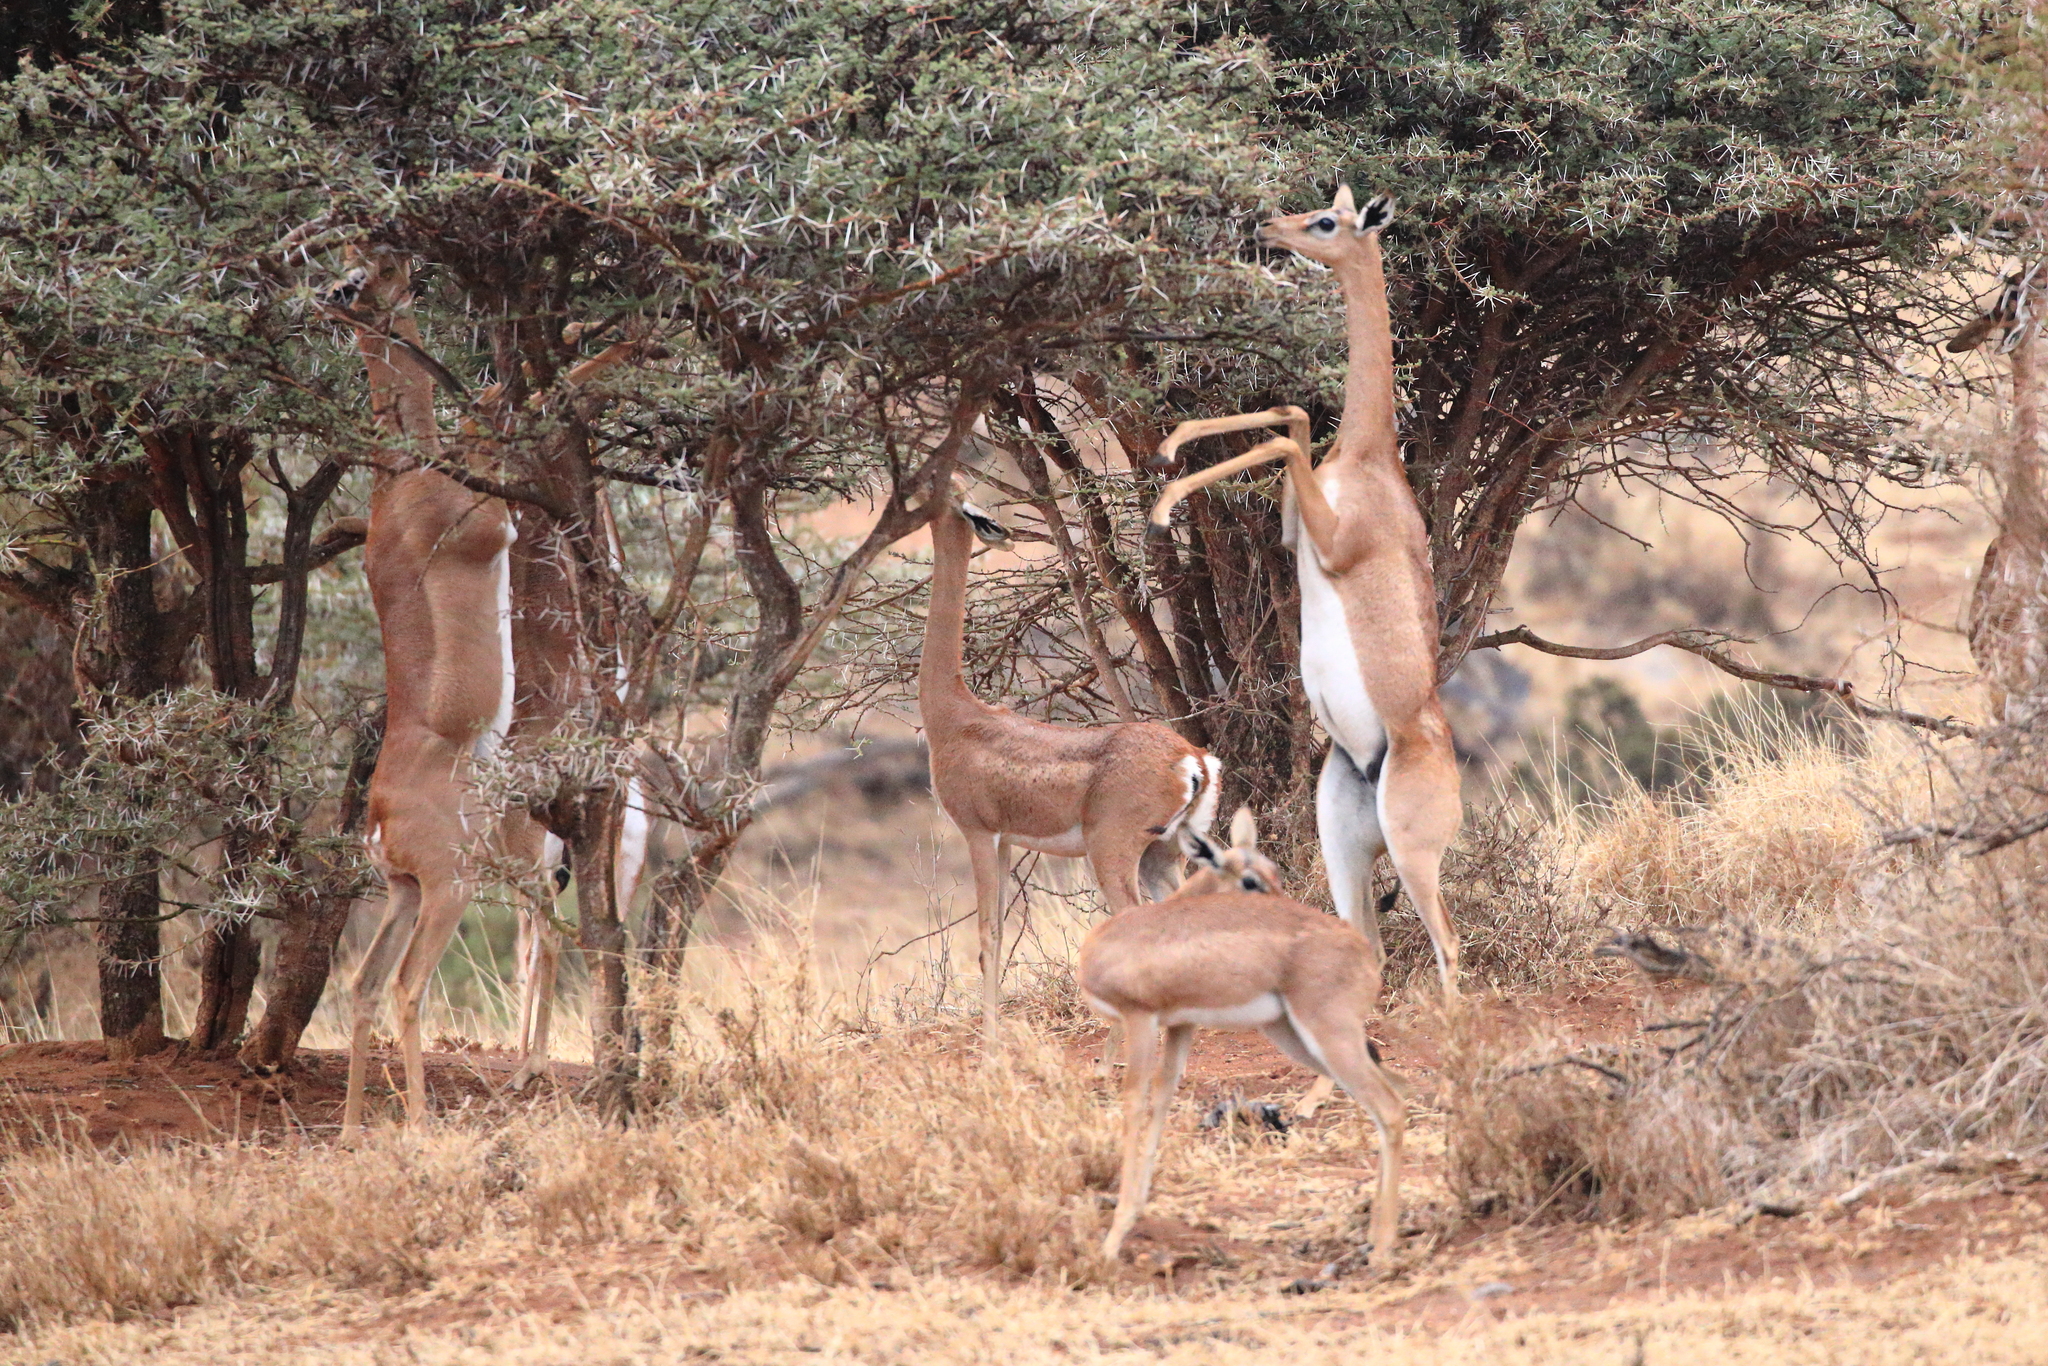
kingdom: Animalia
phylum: Chordata
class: Mammalia
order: Artiodactyla
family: Bovidae
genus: Litocranius
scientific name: Litocranius walleri
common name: Gerenuk
